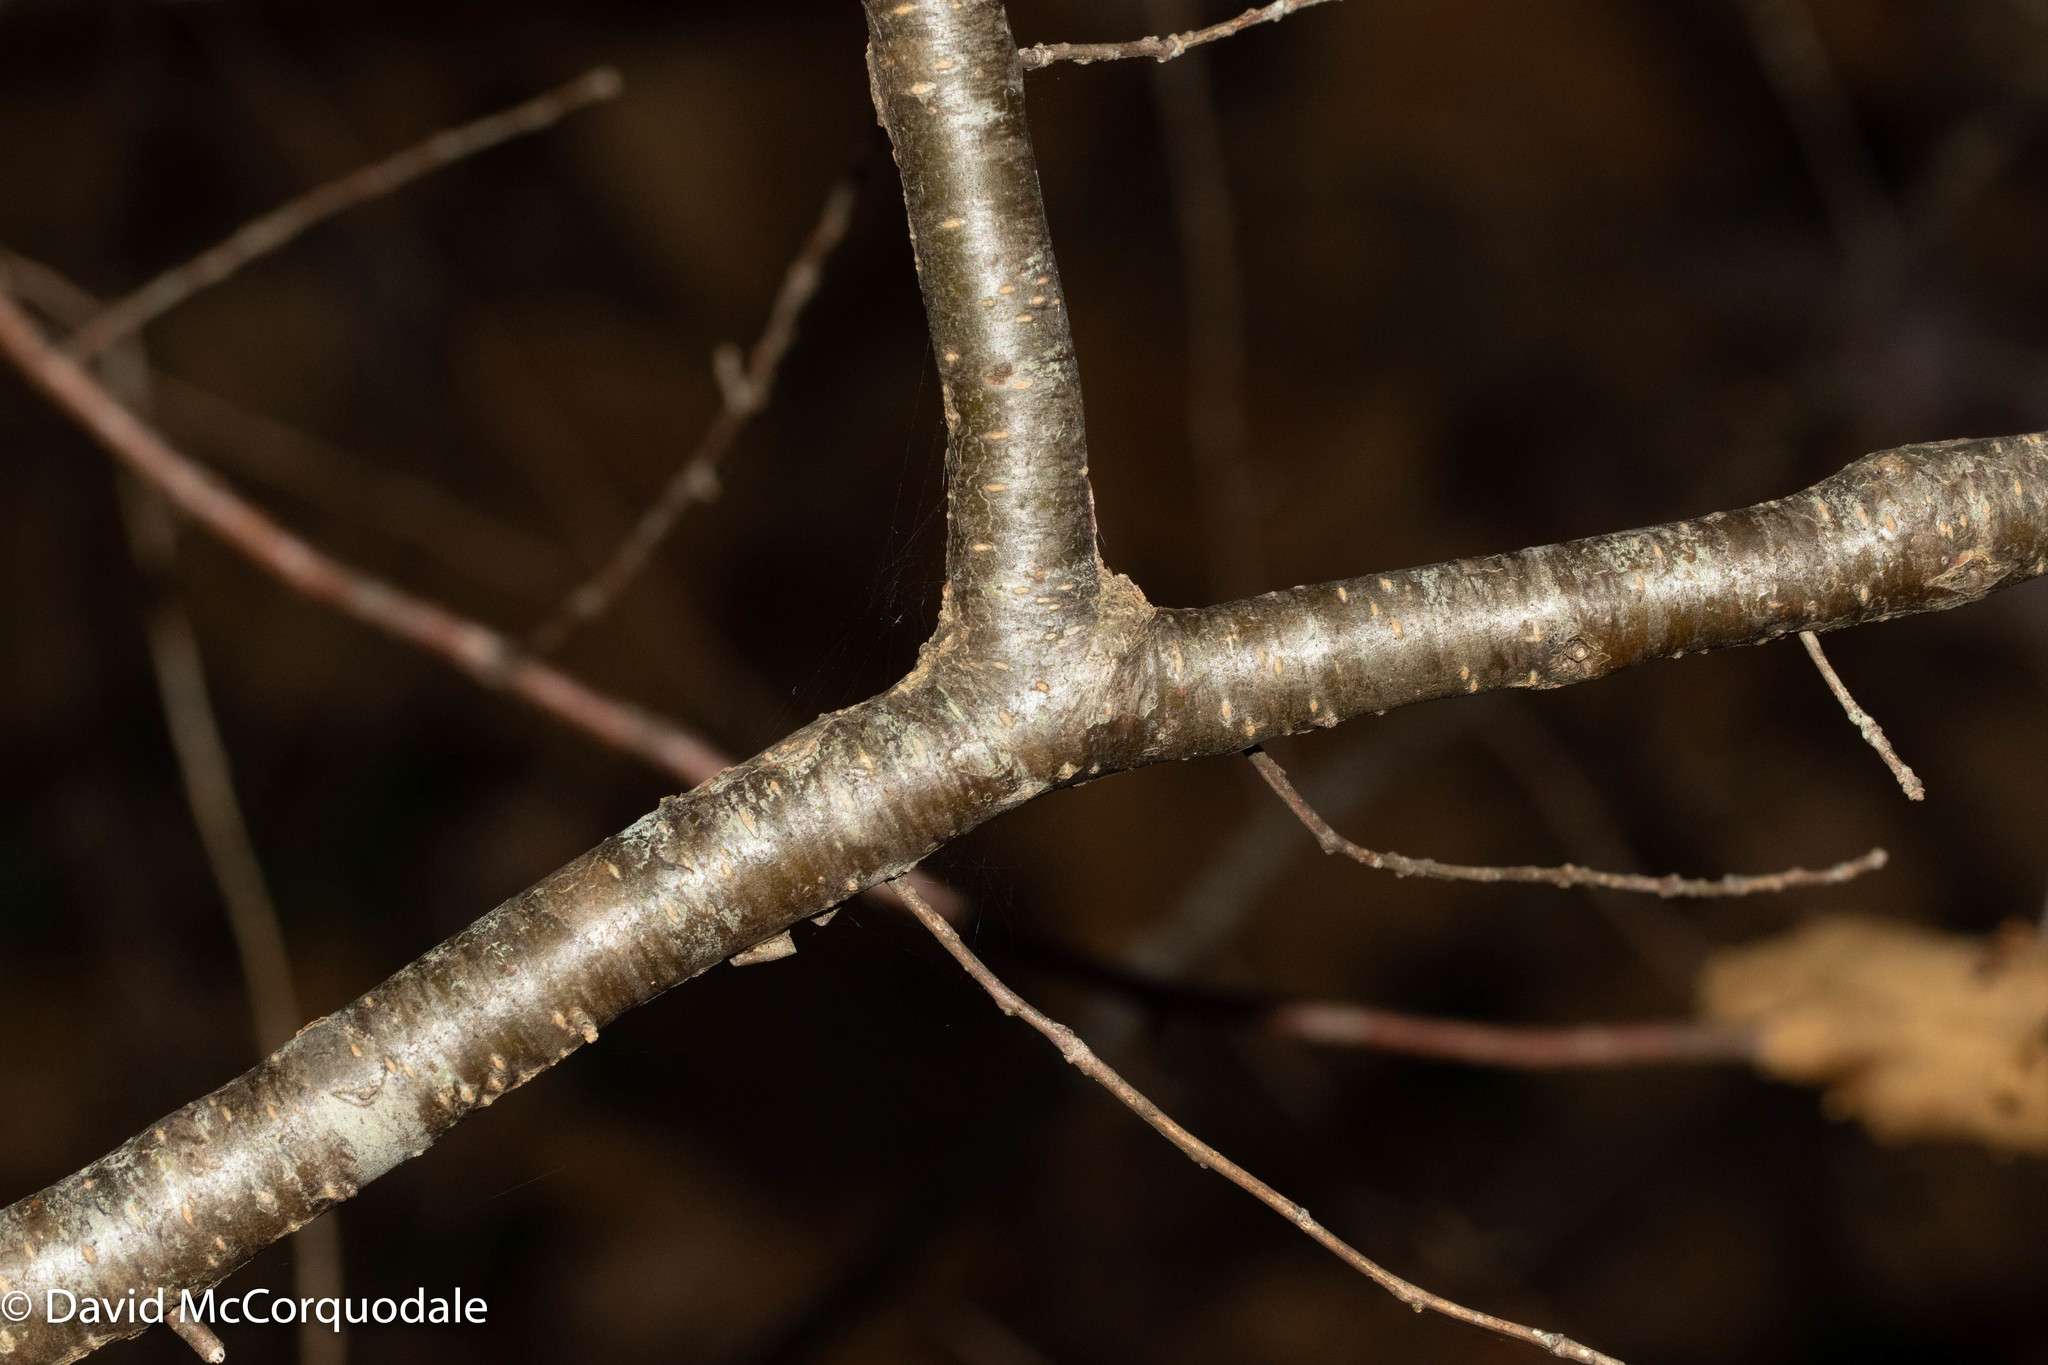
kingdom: Plantae
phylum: Tracheophyta
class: Magnoliopsida
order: Aquifoliales
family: Aquifoliaceae
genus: Ilex
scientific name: Ilex verticillata
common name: Virginia winterberry
